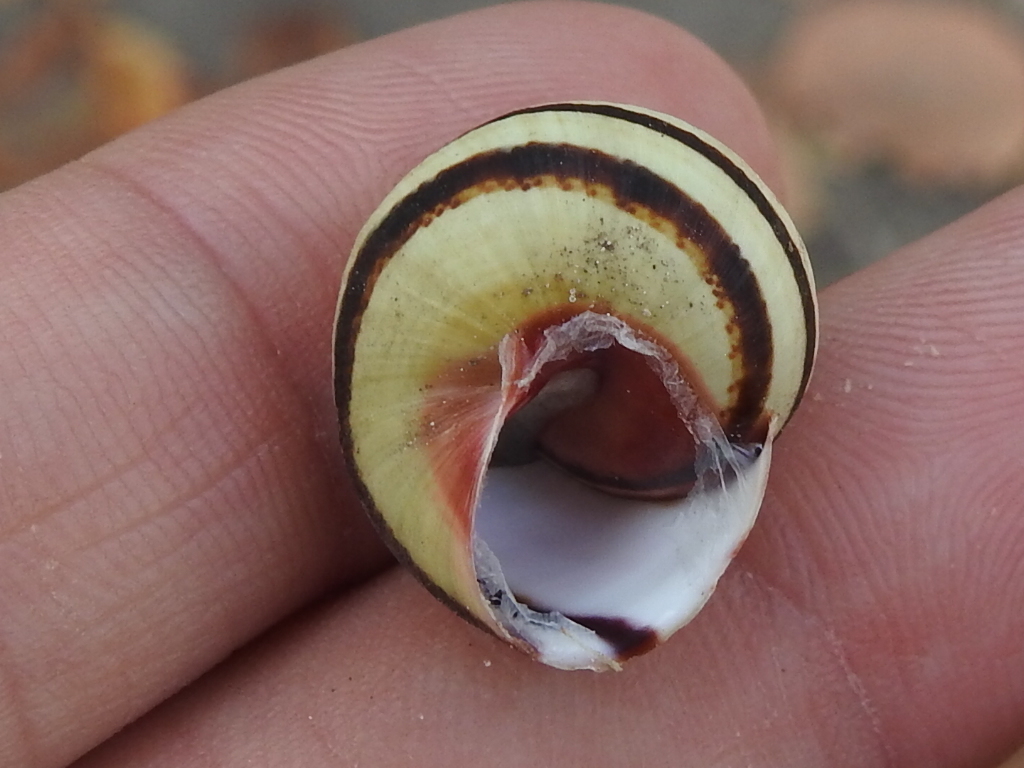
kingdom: Animalia
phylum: Mollusca
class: Gastropoda
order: Stylommatophora
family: Cepolidae
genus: Hemitrochus
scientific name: Hemitrochus varians
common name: Caribbean land snail
